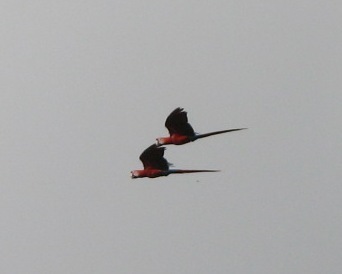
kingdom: Animalia
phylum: Chordata
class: Aves
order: Psittaciformes
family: Psittacidae
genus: Ara
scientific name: Ara macao
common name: Scarlet macaw
